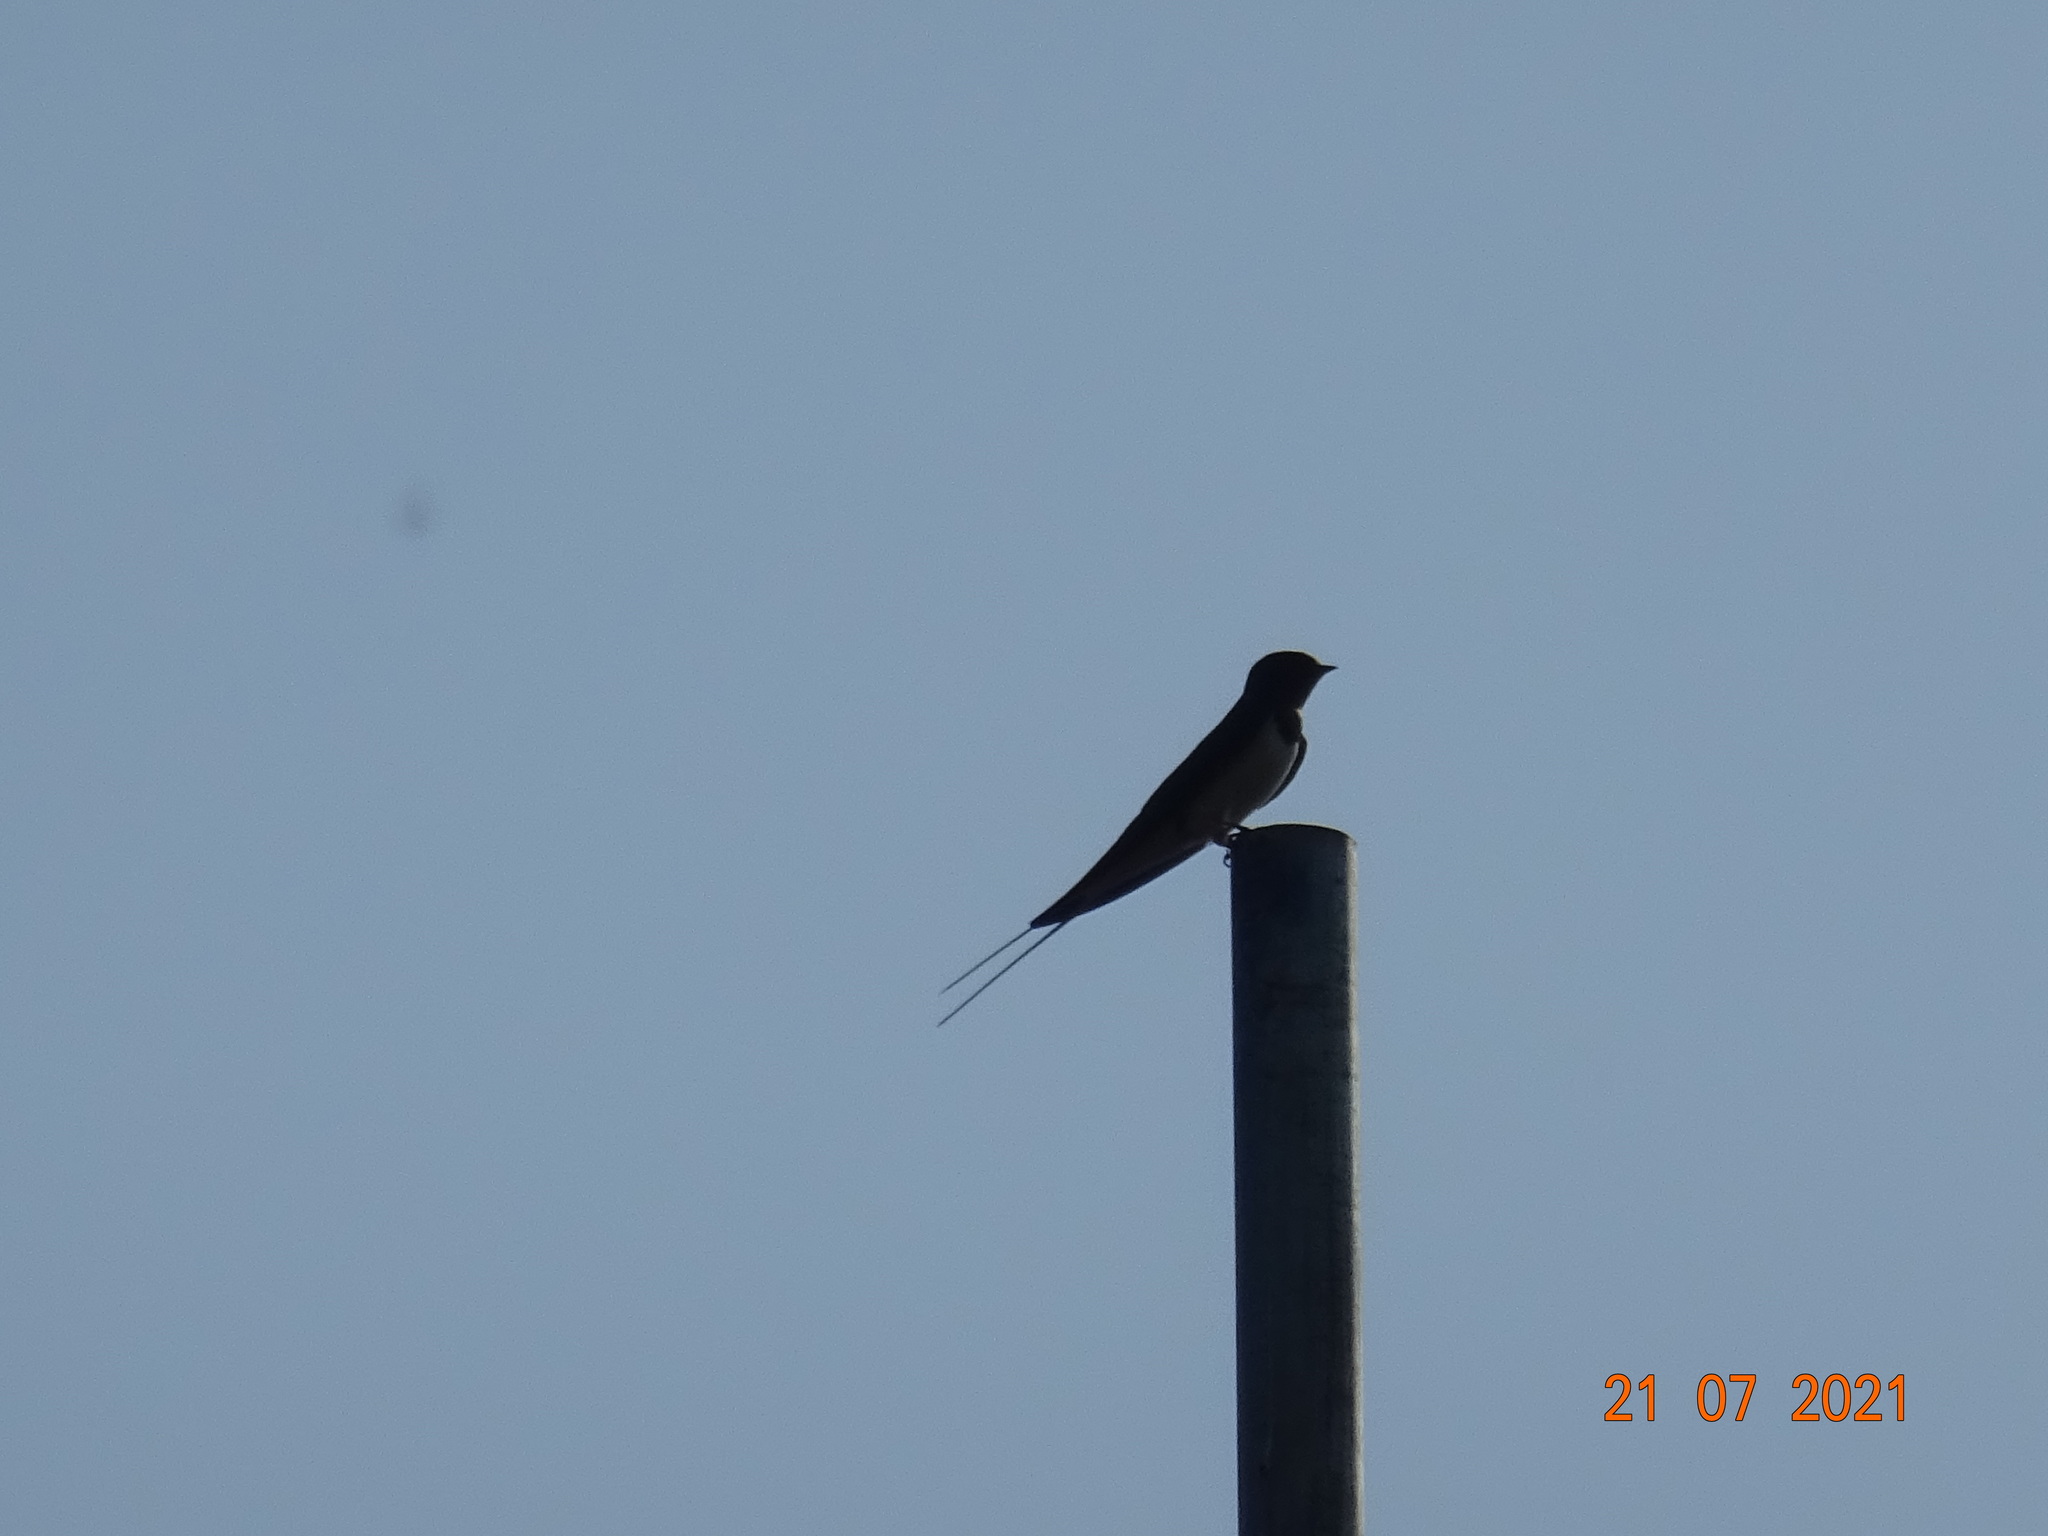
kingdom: Animalia
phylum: Chordata
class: Aves
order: Passeriformes
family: Hirundinidae
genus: Hirundo
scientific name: Hirundo rustica
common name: Barn swallow
